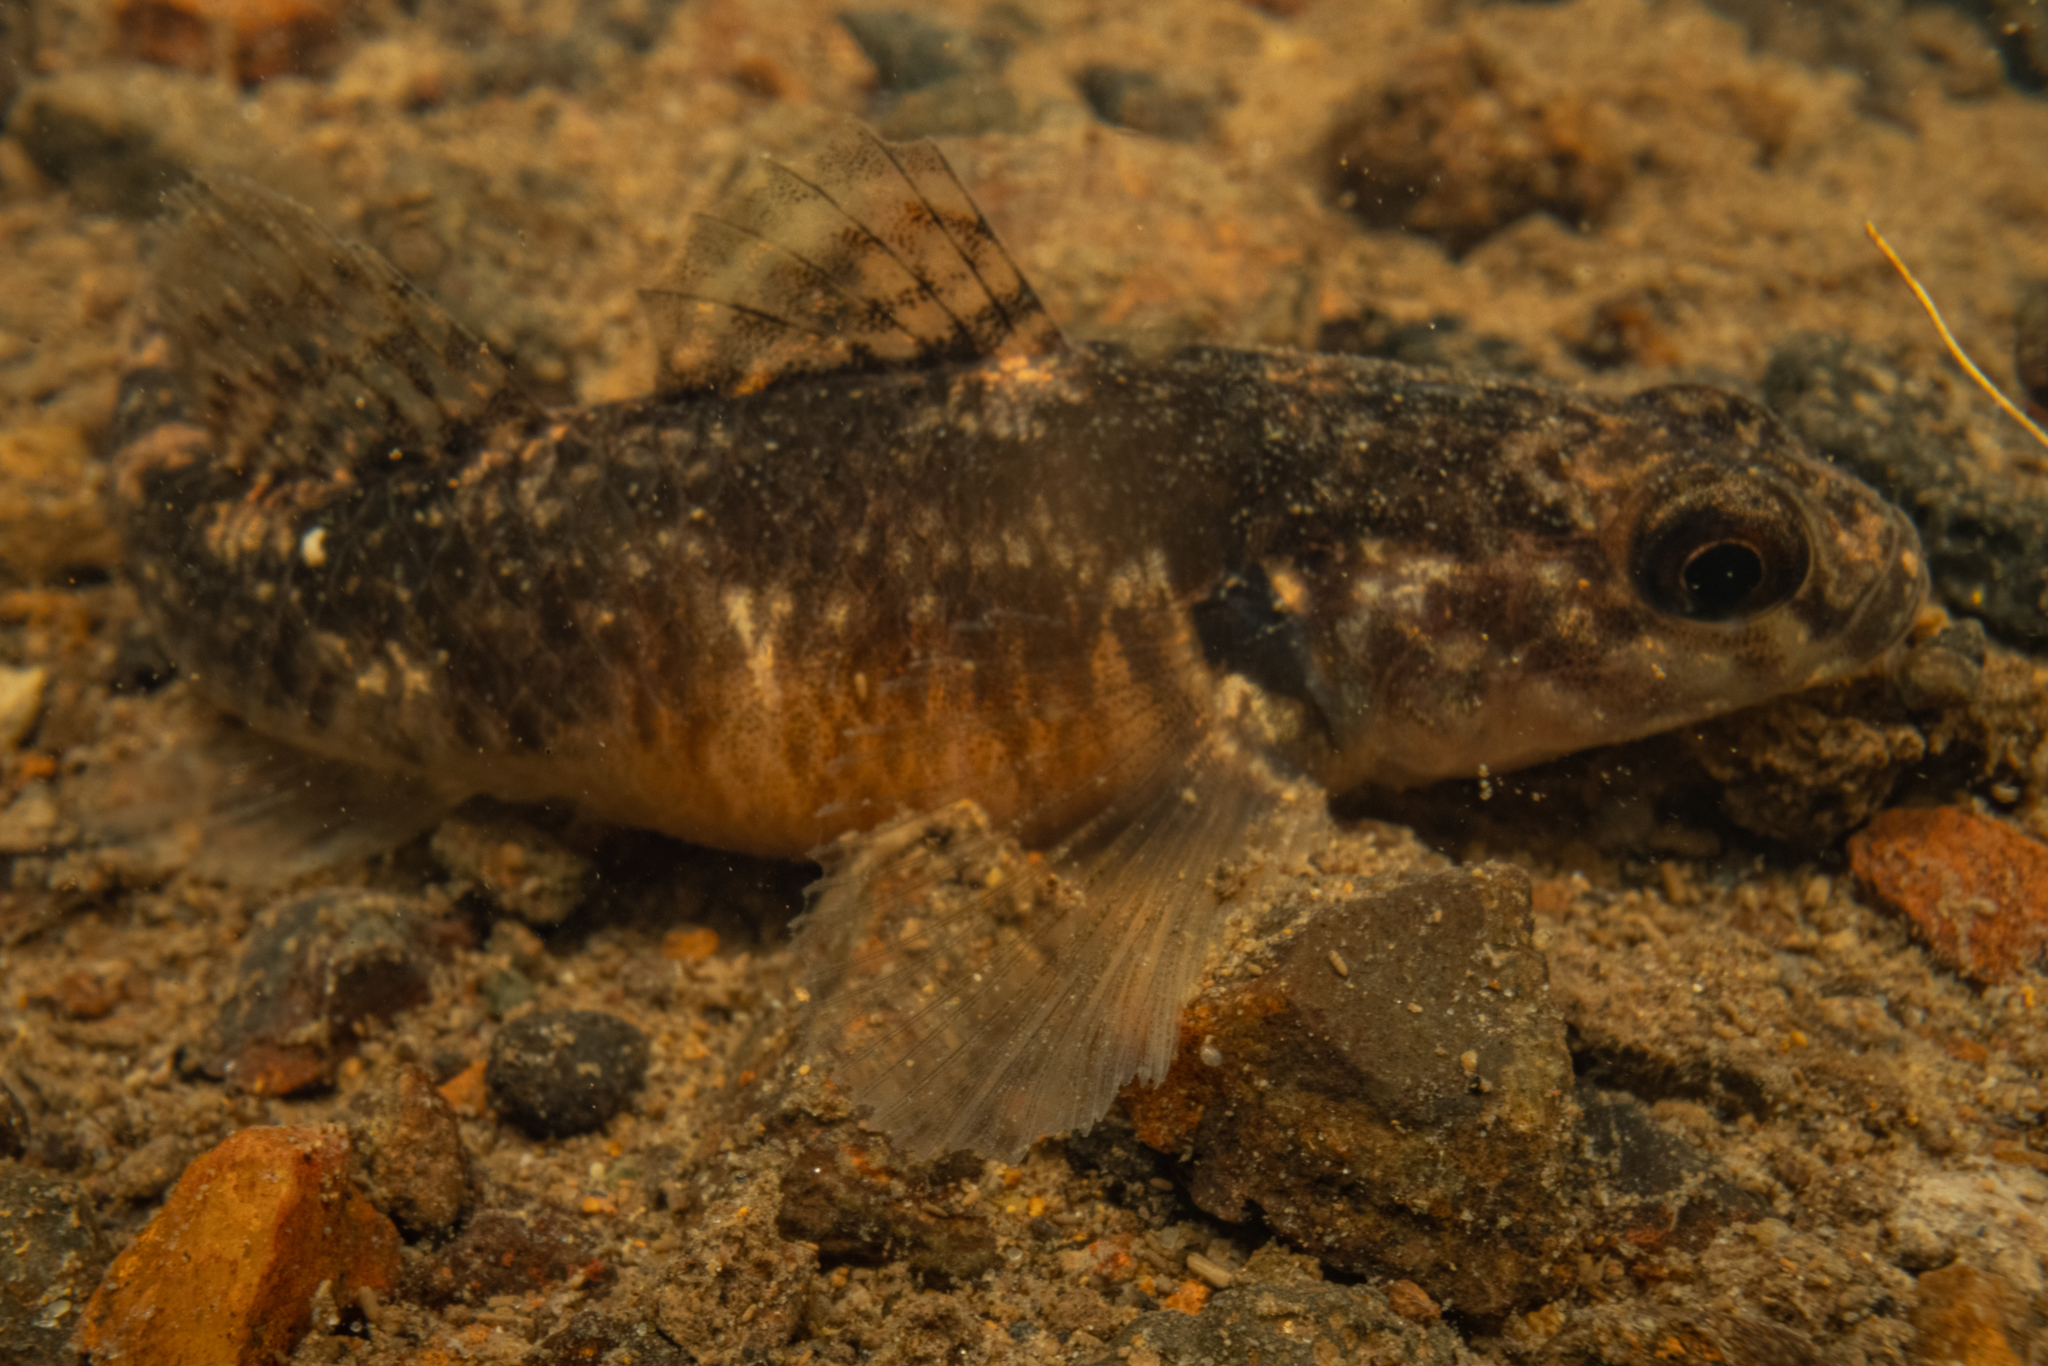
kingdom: Animalia
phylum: Chordata
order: Perciformes
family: Eleotridae
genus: Gobiomorphus
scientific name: Gobiomorphus huttoni
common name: Redfin bully
